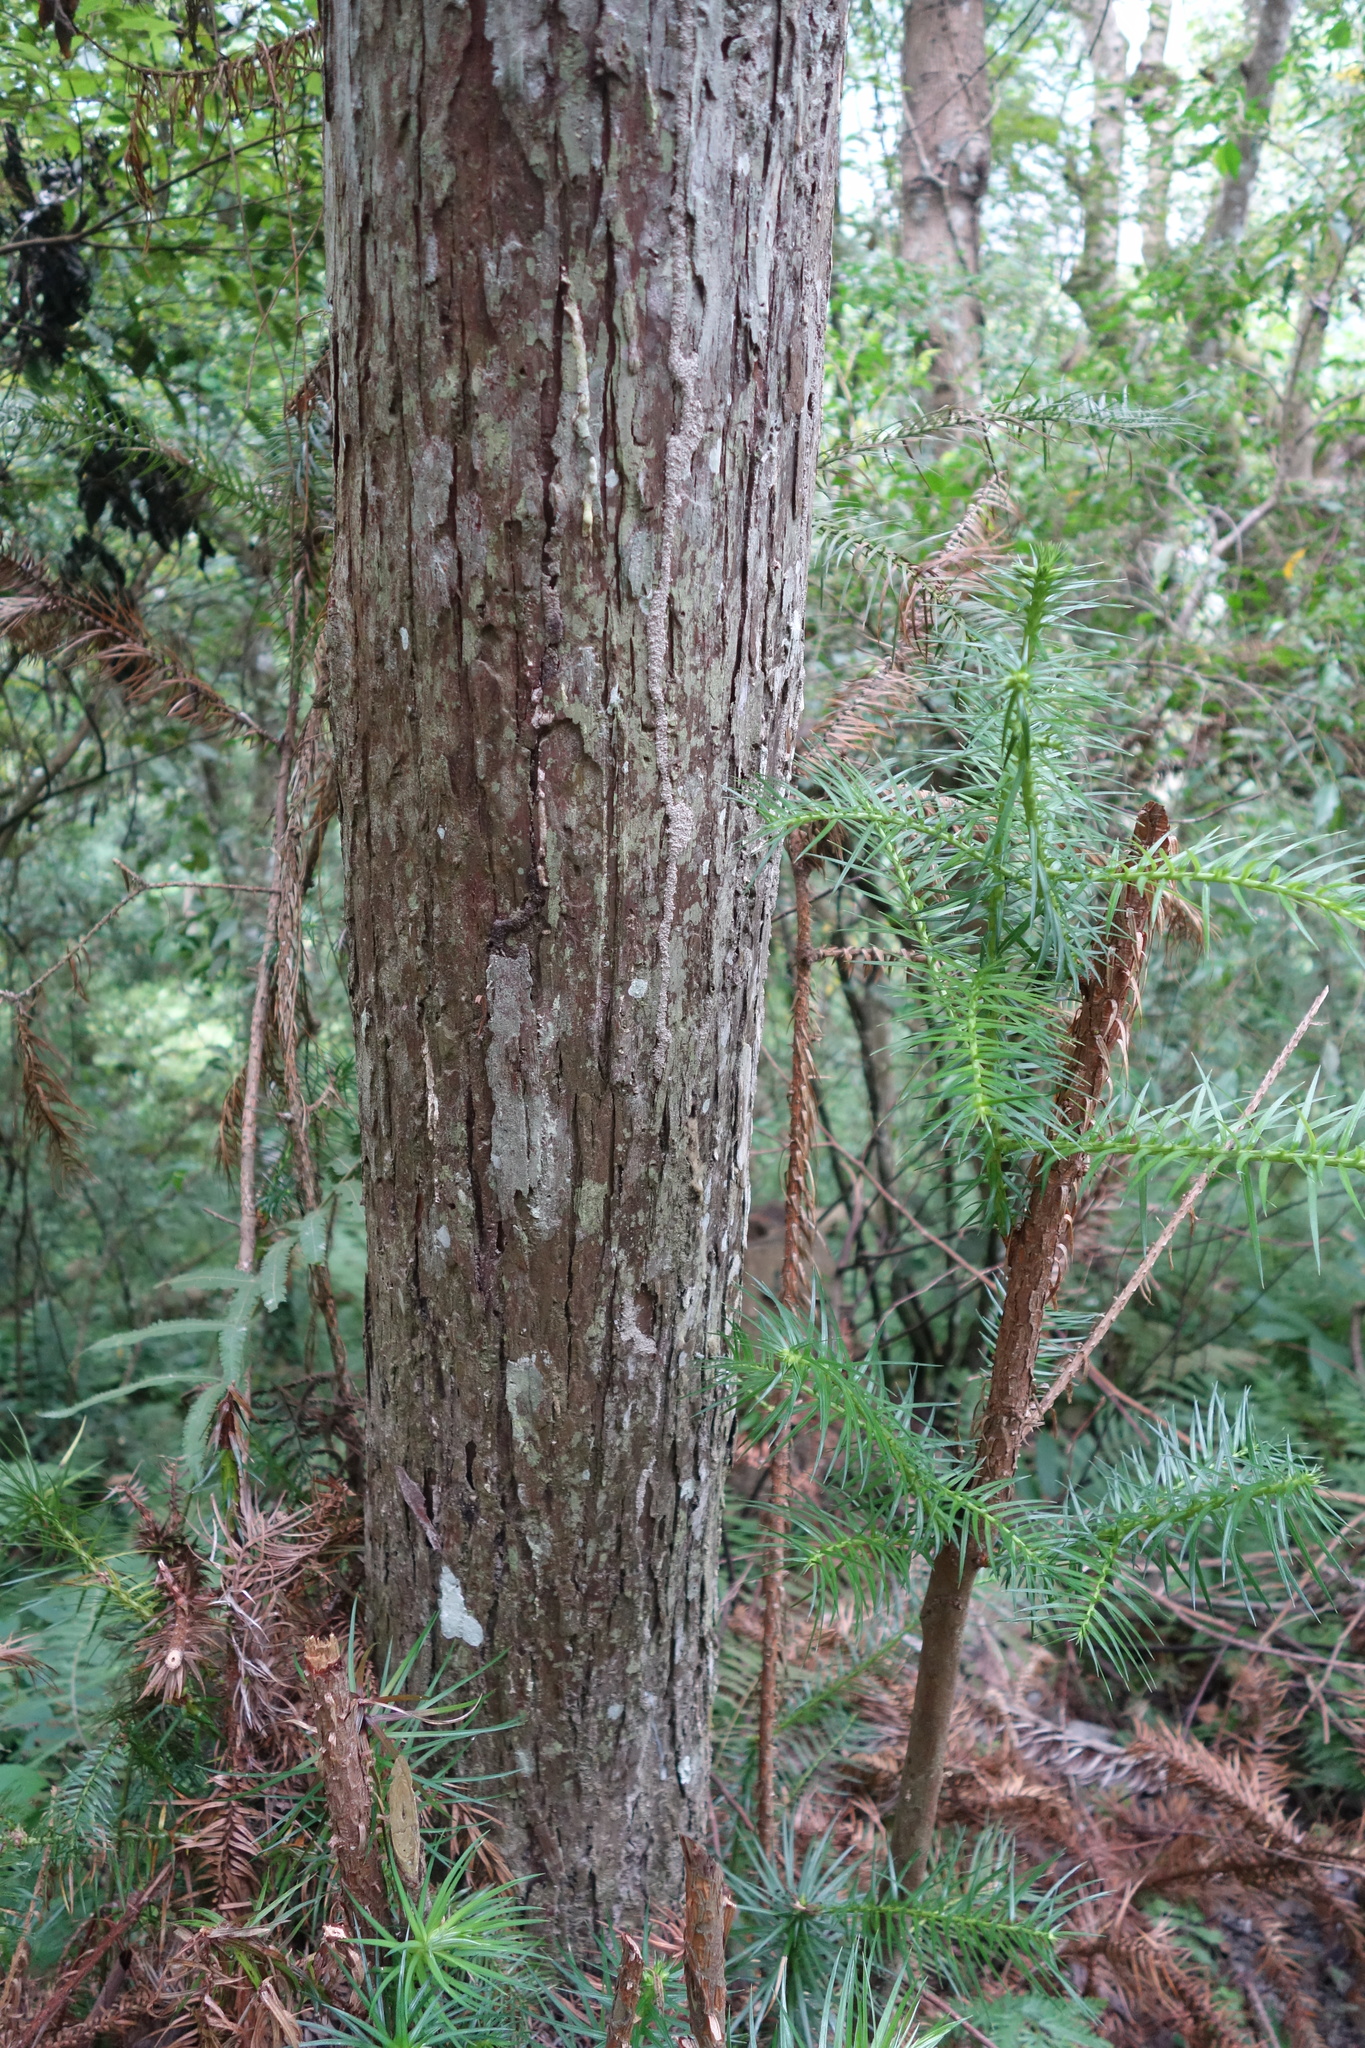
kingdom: Plantae
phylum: Tracheophyta
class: Pinopsida
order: Pinales
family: Cupressaceae
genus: Cunninghamia
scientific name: Cunninghamia lanceolata
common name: Chinese fir
